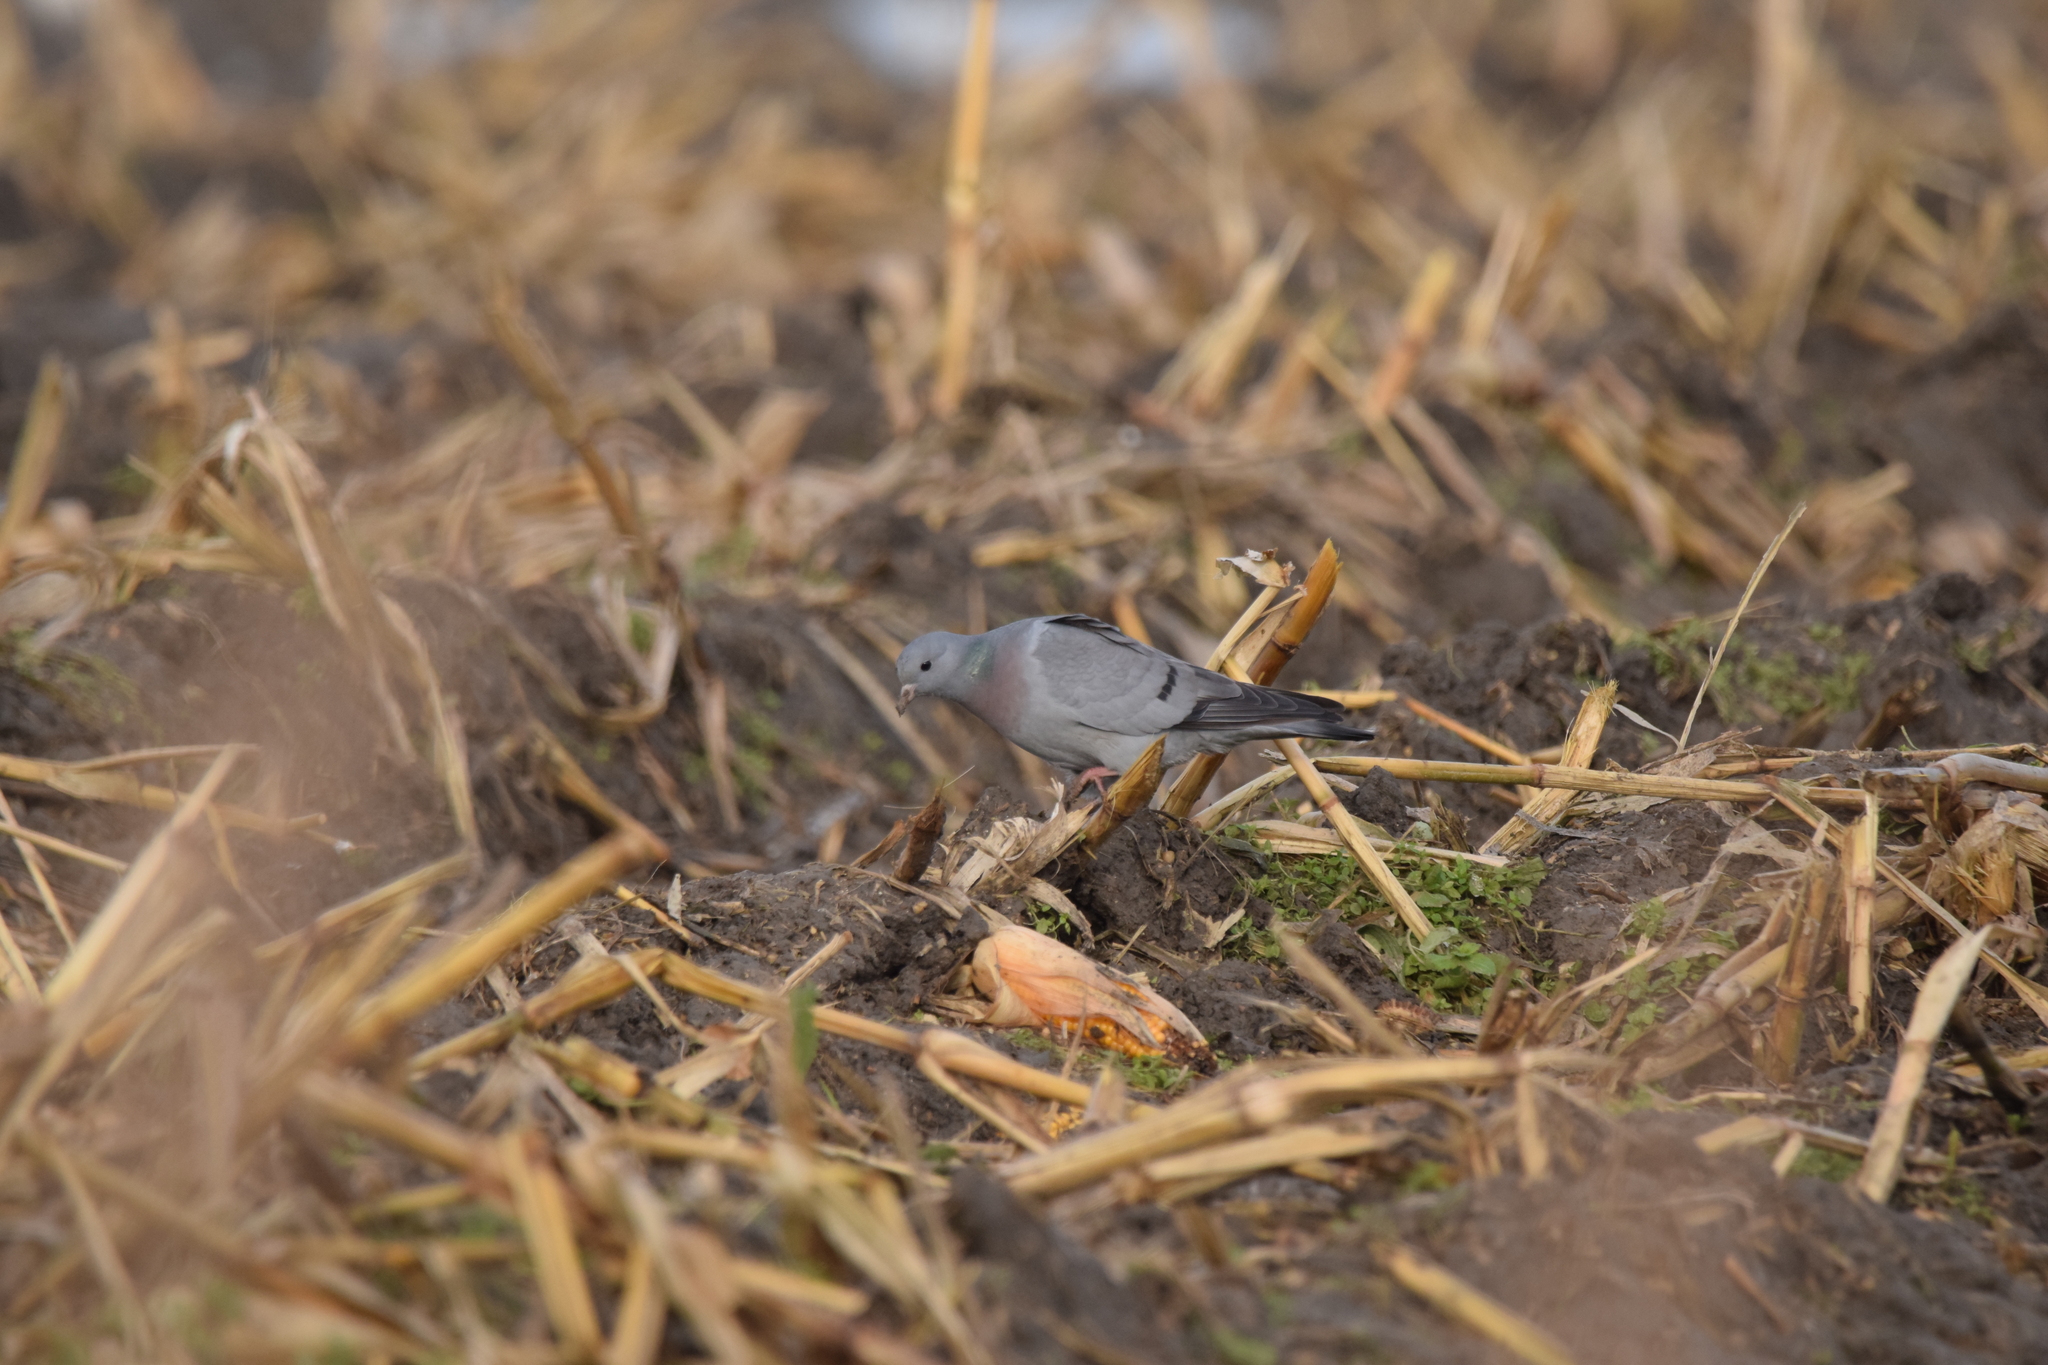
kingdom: Animalia
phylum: Chordata
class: Aves
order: Columbiformes
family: Columbidae
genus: Columba
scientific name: Columba oenas
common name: Stock dove
